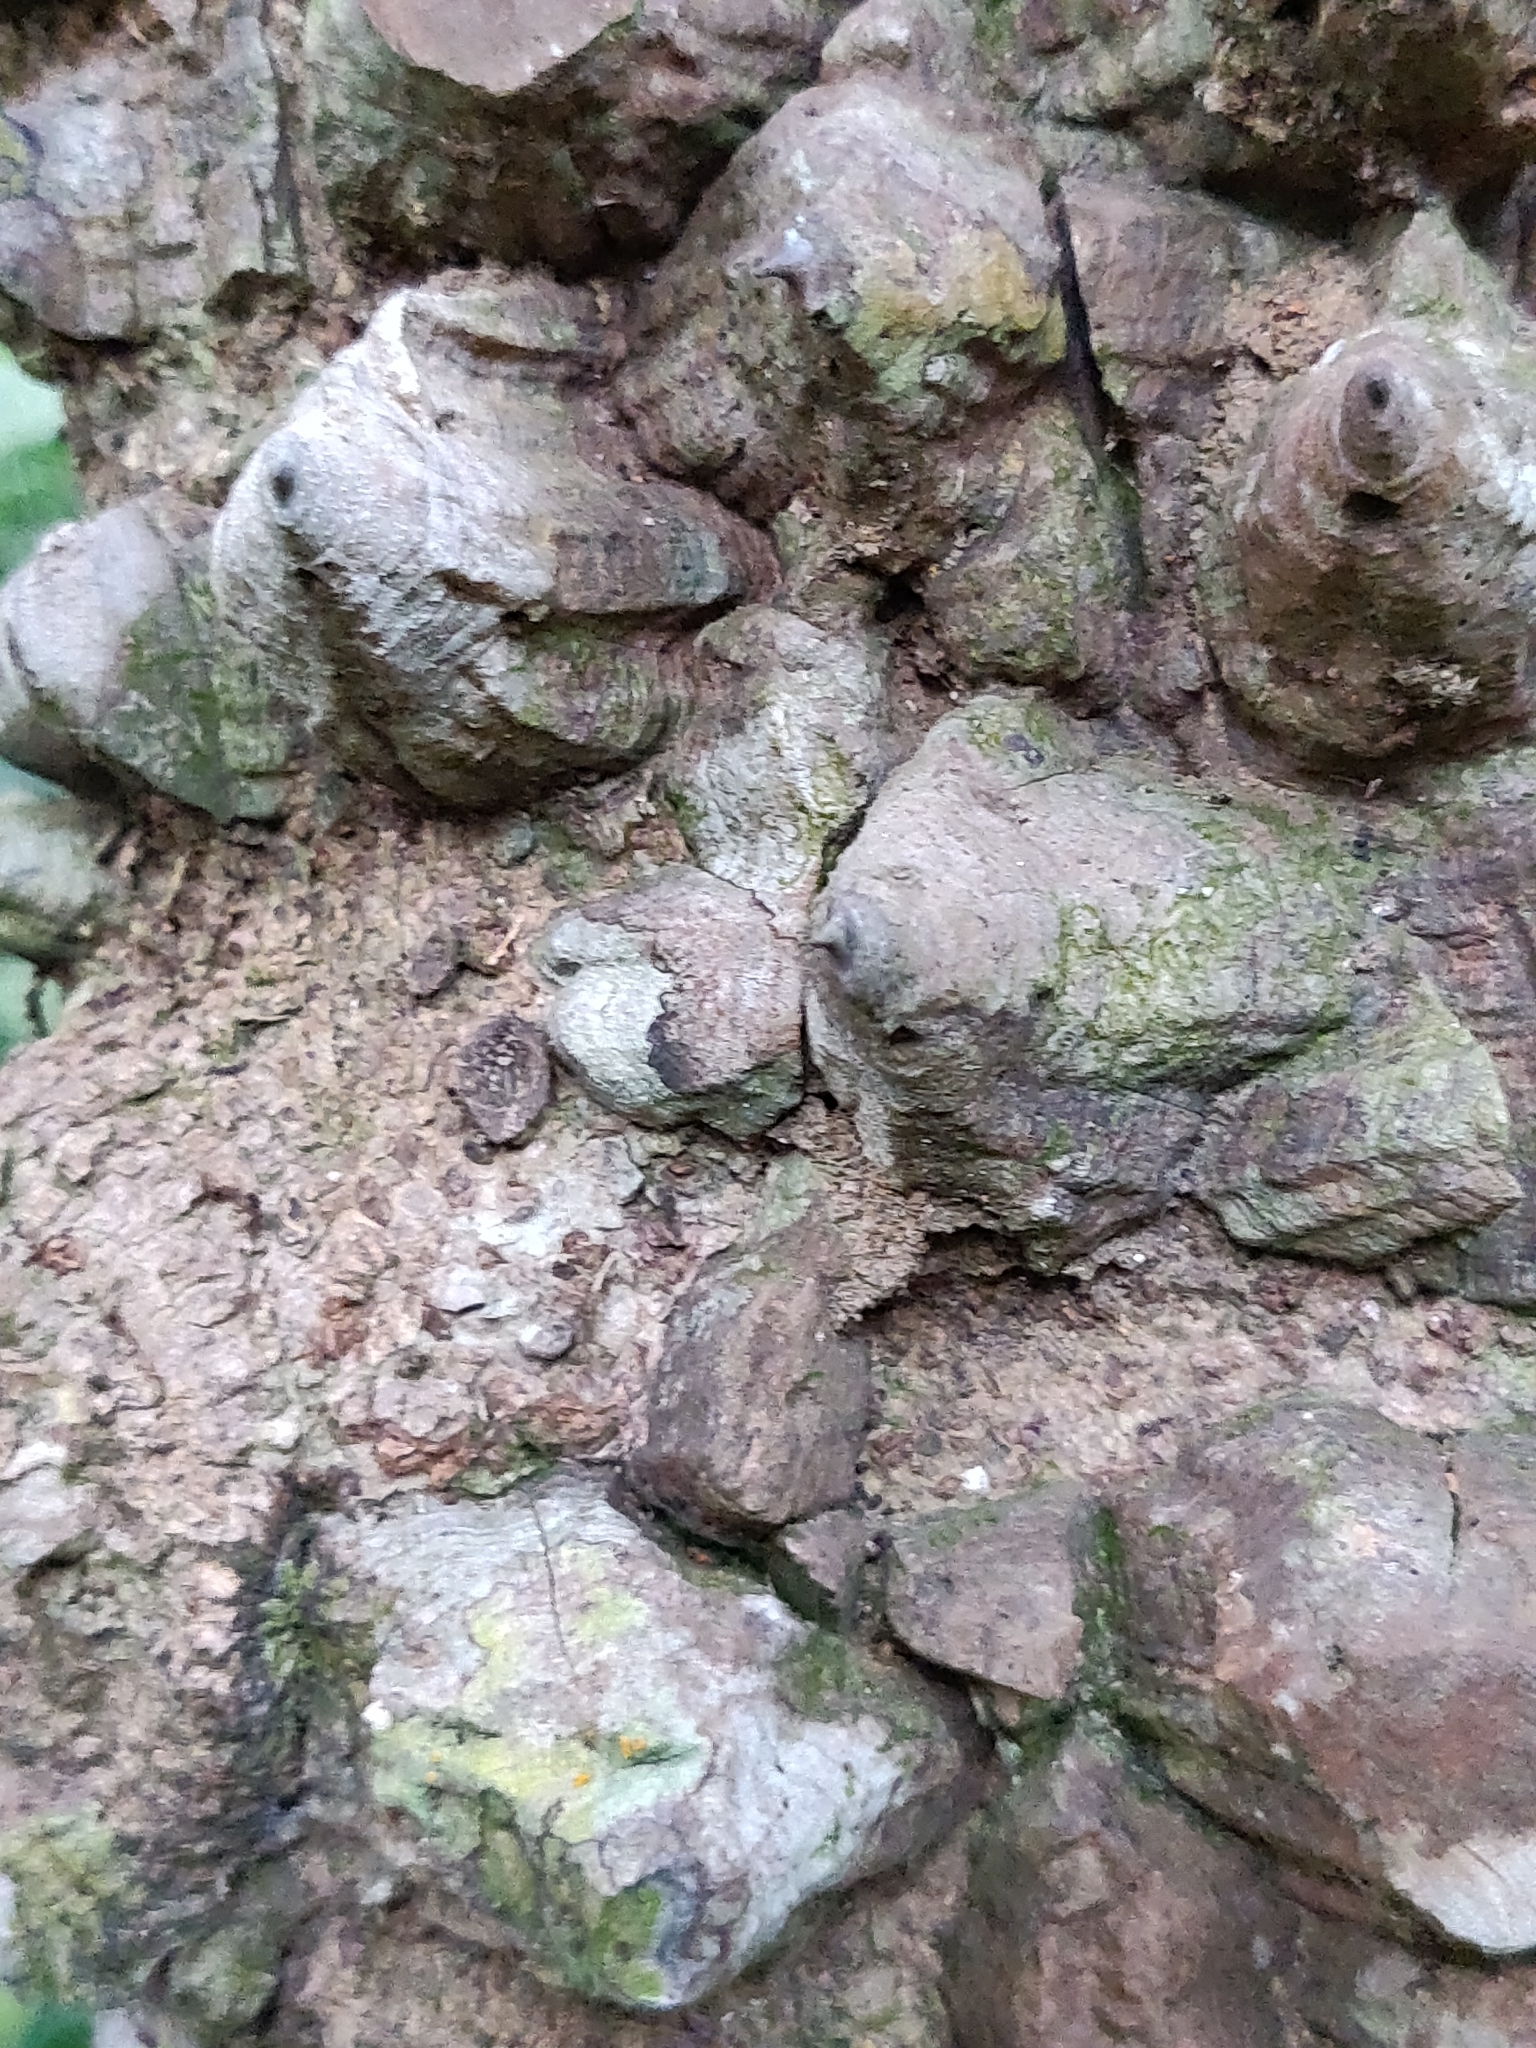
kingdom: Plantae
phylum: Tracheophyta
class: Magnoliopsida
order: Fabales
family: Fabaceae
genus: Mezoneuron
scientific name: Mezoneuron cucullatum
